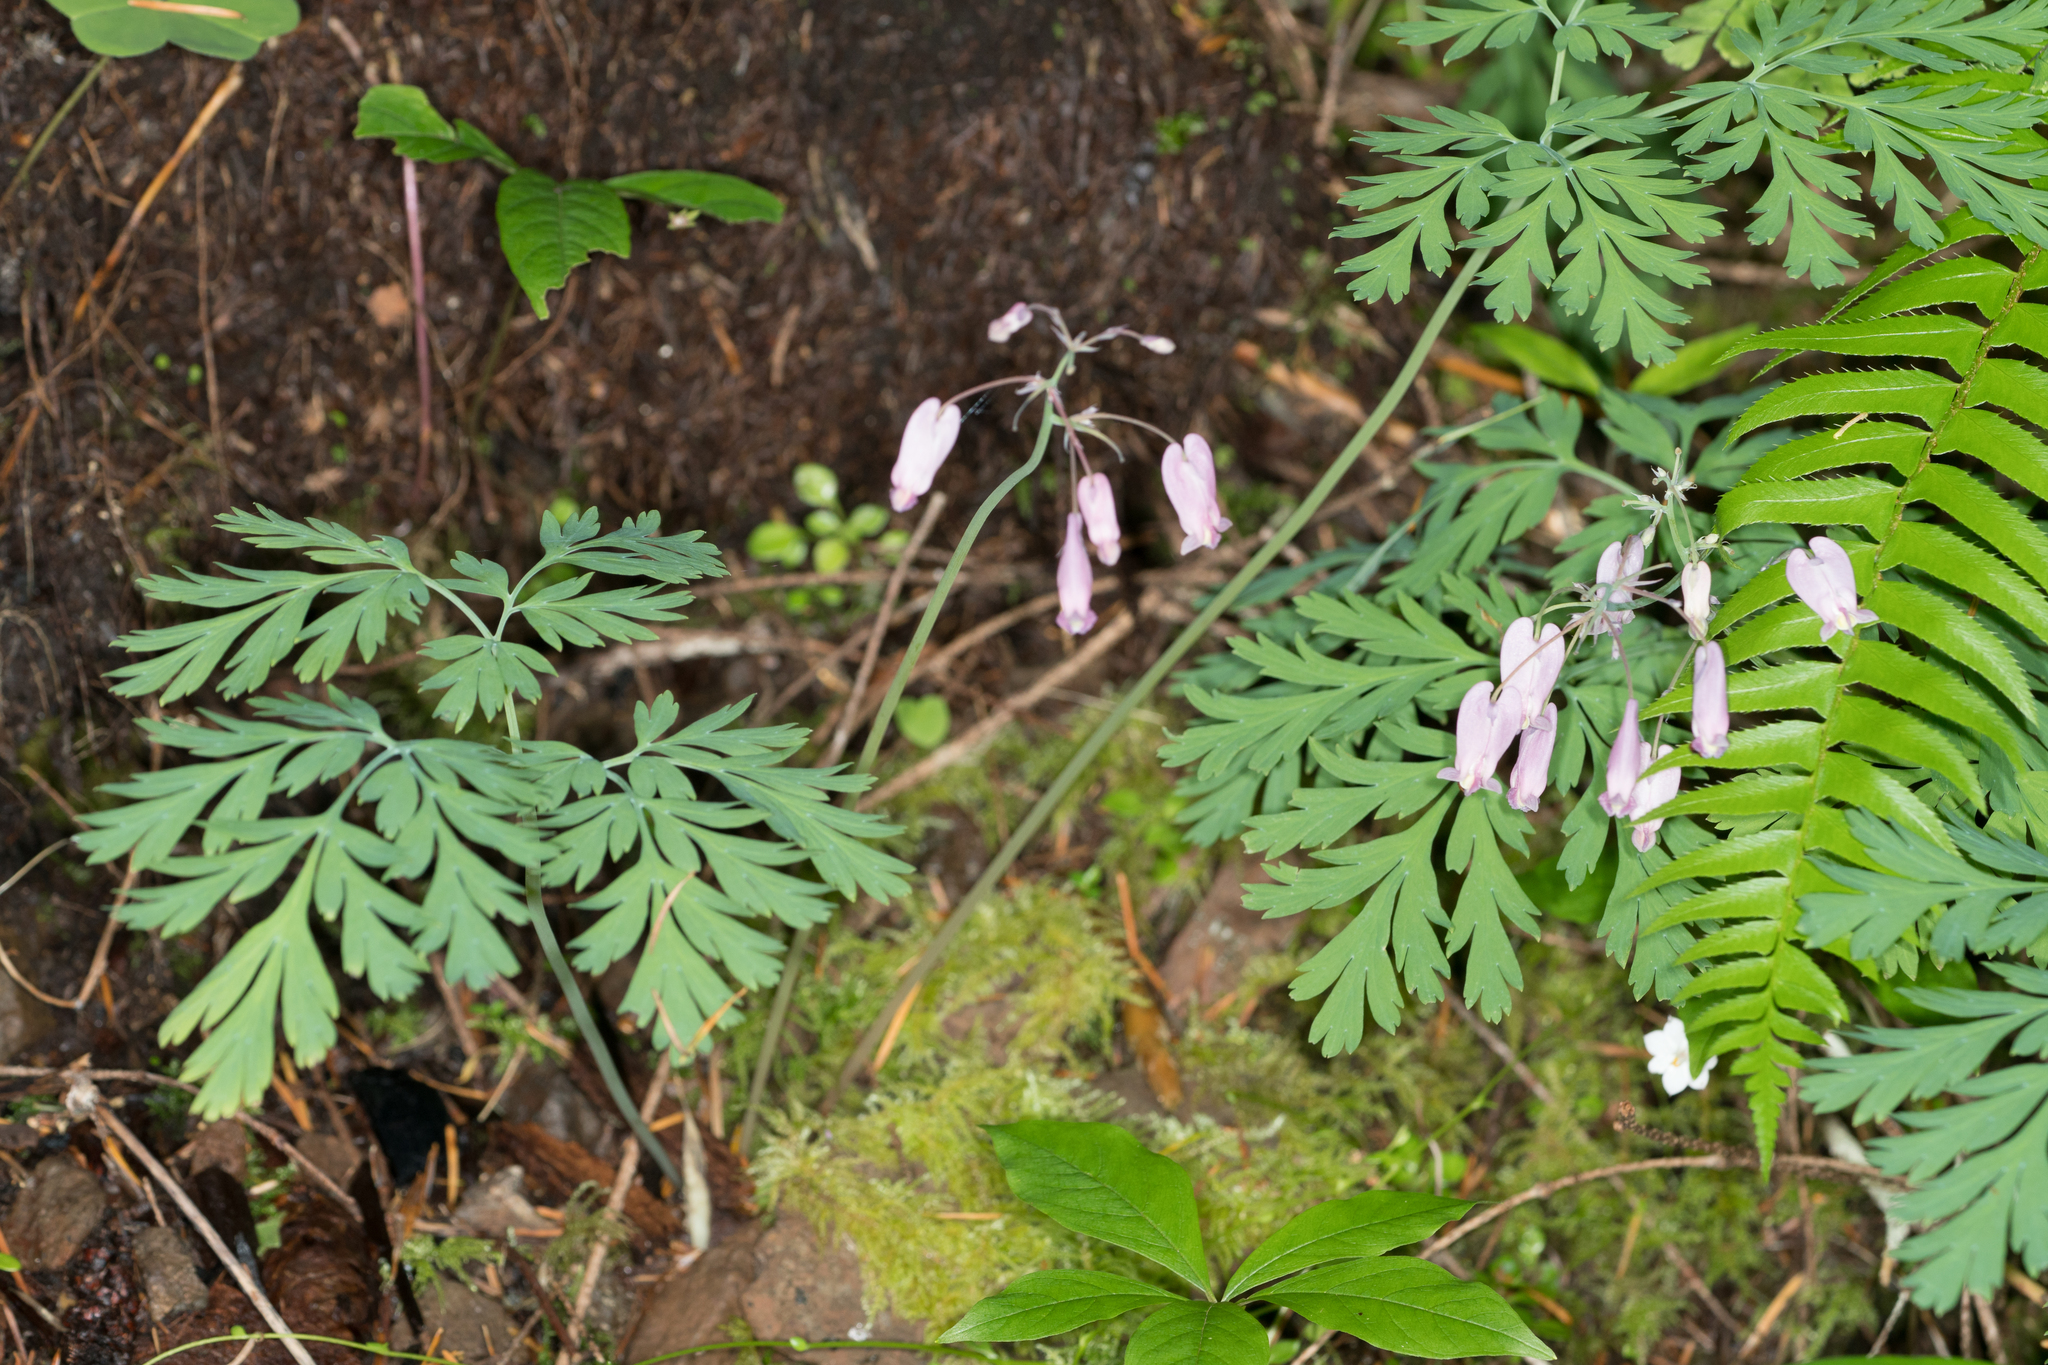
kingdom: Plantae
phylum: Tracheophyta
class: Magnoliopsida
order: Ranunculales
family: Papaveraceae
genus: Dicentra
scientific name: Dicentra formosa
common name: Bleeding-heart
